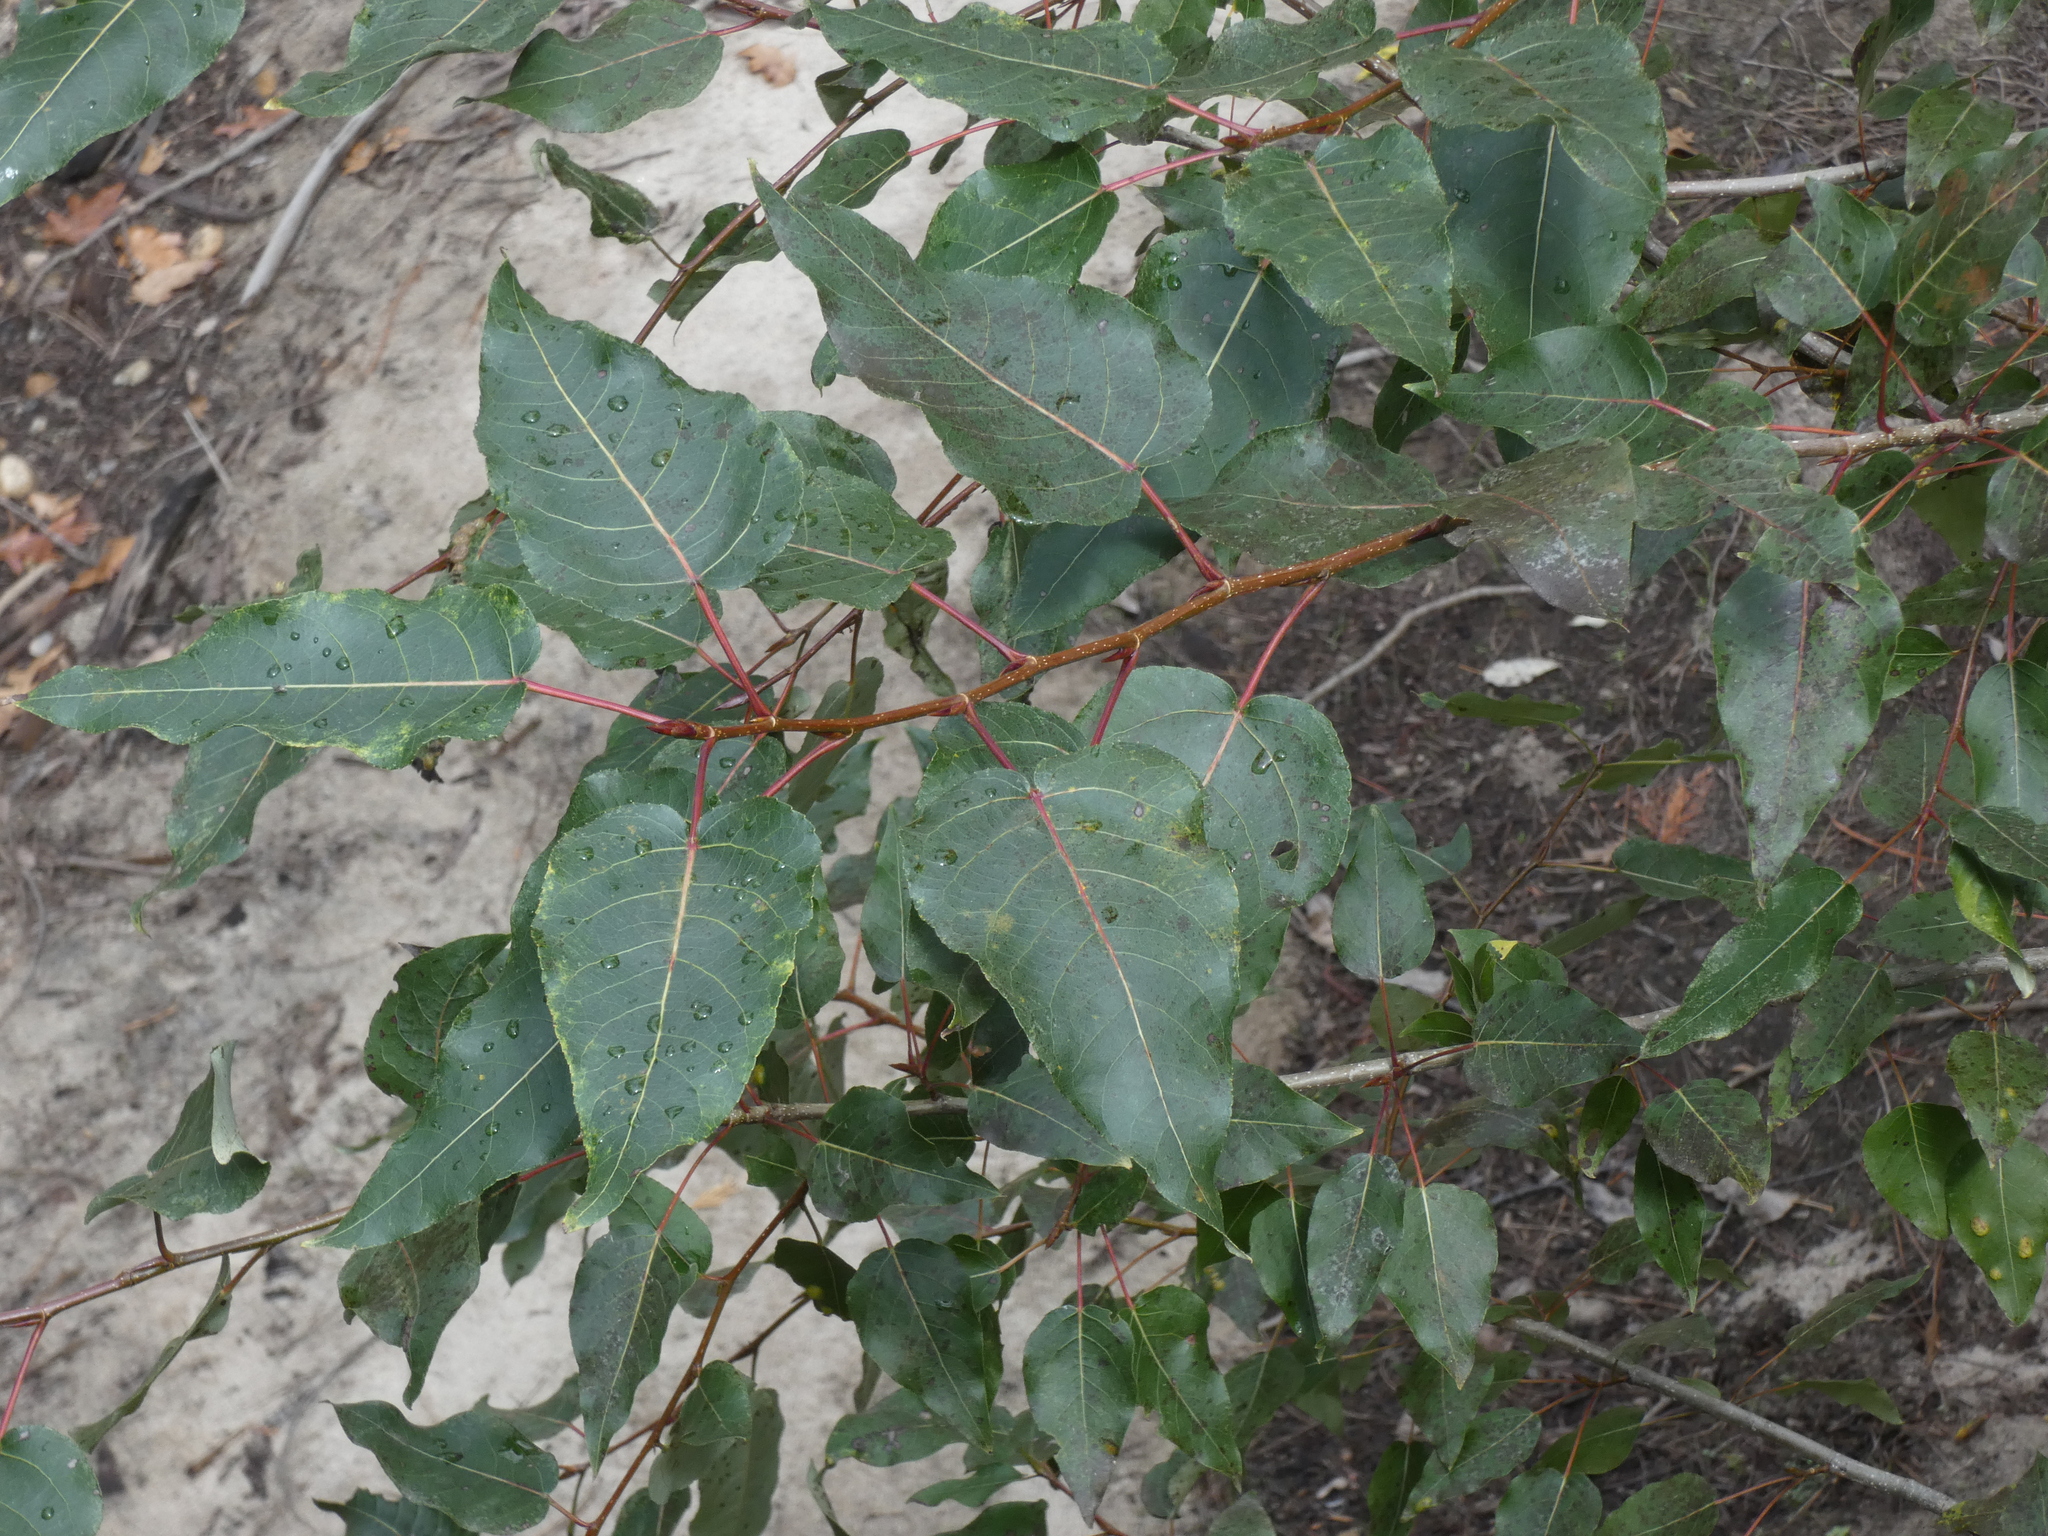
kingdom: Plantae
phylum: Tracheophyta
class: Magnoliopsida
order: Malpighiales
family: Salicaceae
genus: Populus
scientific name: Populus trichocarpa
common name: Black cottonwood
